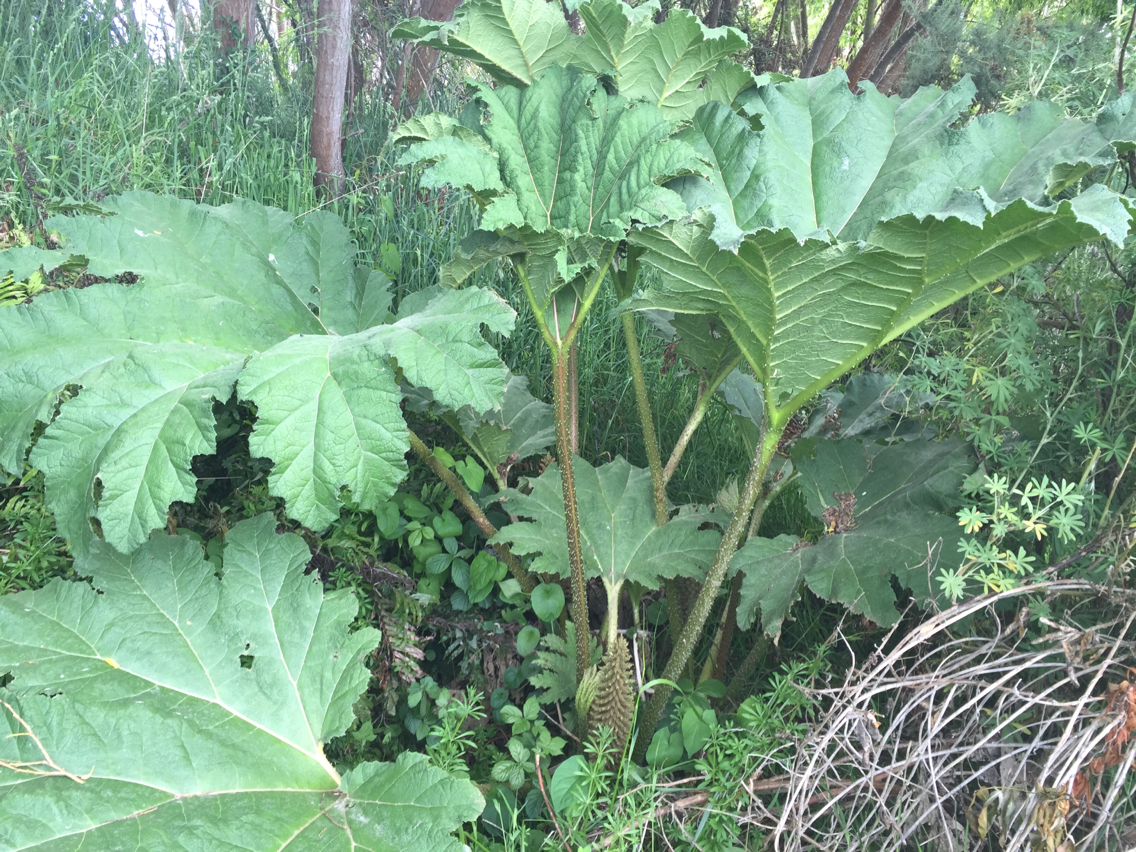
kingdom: Plantae
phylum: Tracheophyta
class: Magnoliopsida
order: Gunnerales
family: Gunneraceae
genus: Gunnera
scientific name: Gunnera tinctoria
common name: Giant-rhubarb
